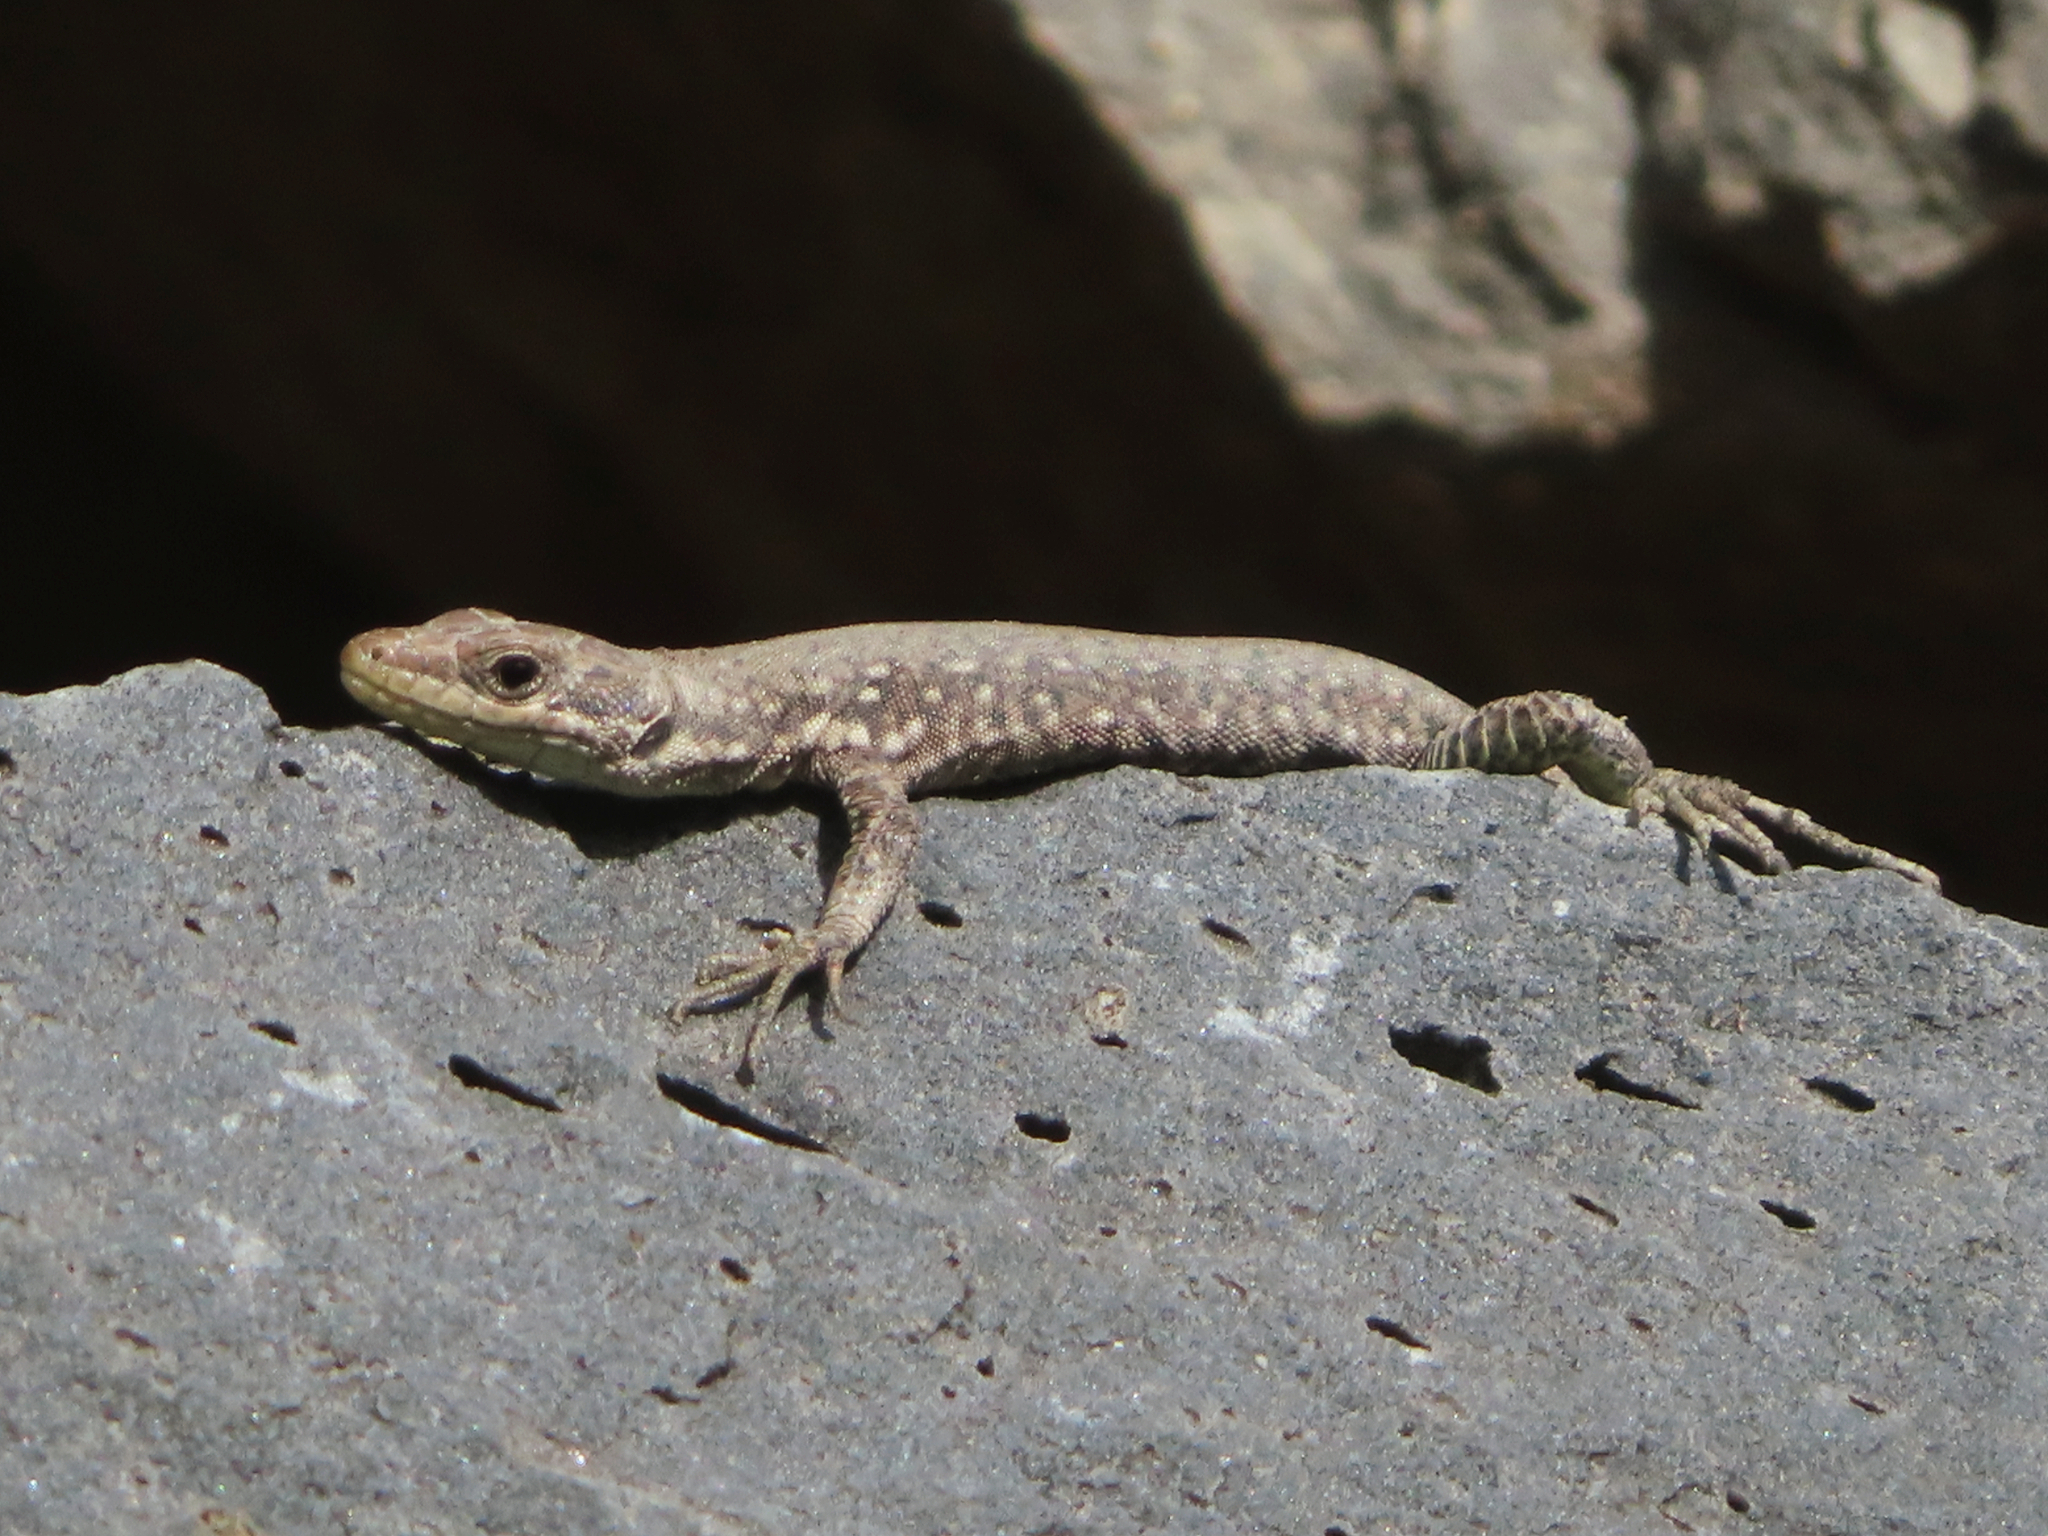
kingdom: Animalia
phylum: Chordata
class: Squamata
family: Lacertidae
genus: Darevskia
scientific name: Darevskia
